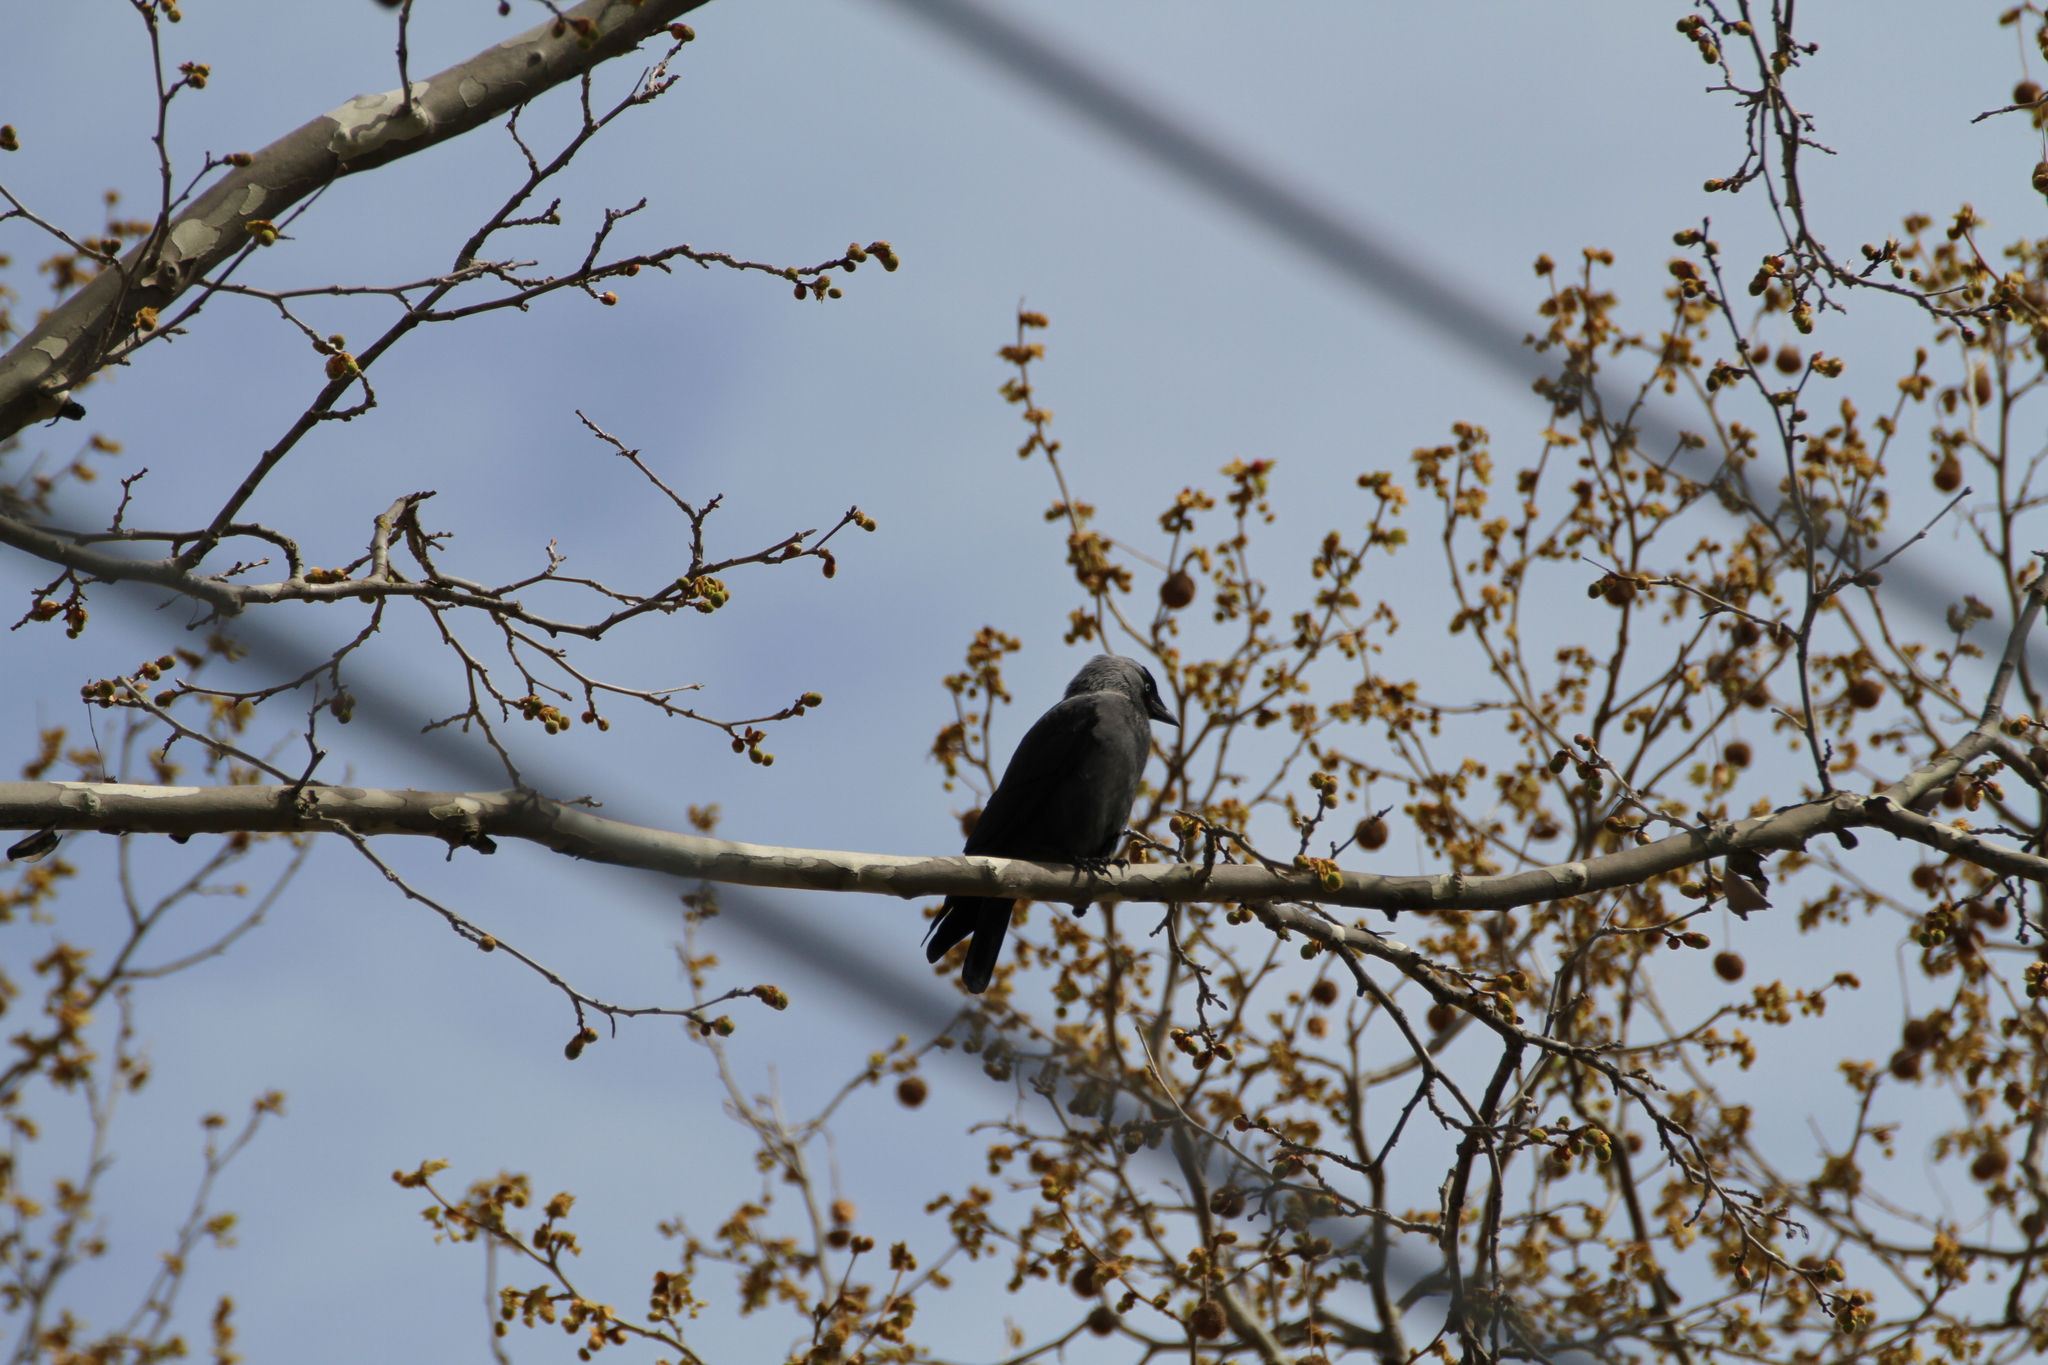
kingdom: Animalia
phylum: Chordata
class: Aves
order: Passeriformes
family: Corvidae
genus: Coloeus
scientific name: Coloeus monedula
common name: Western jackdaw
